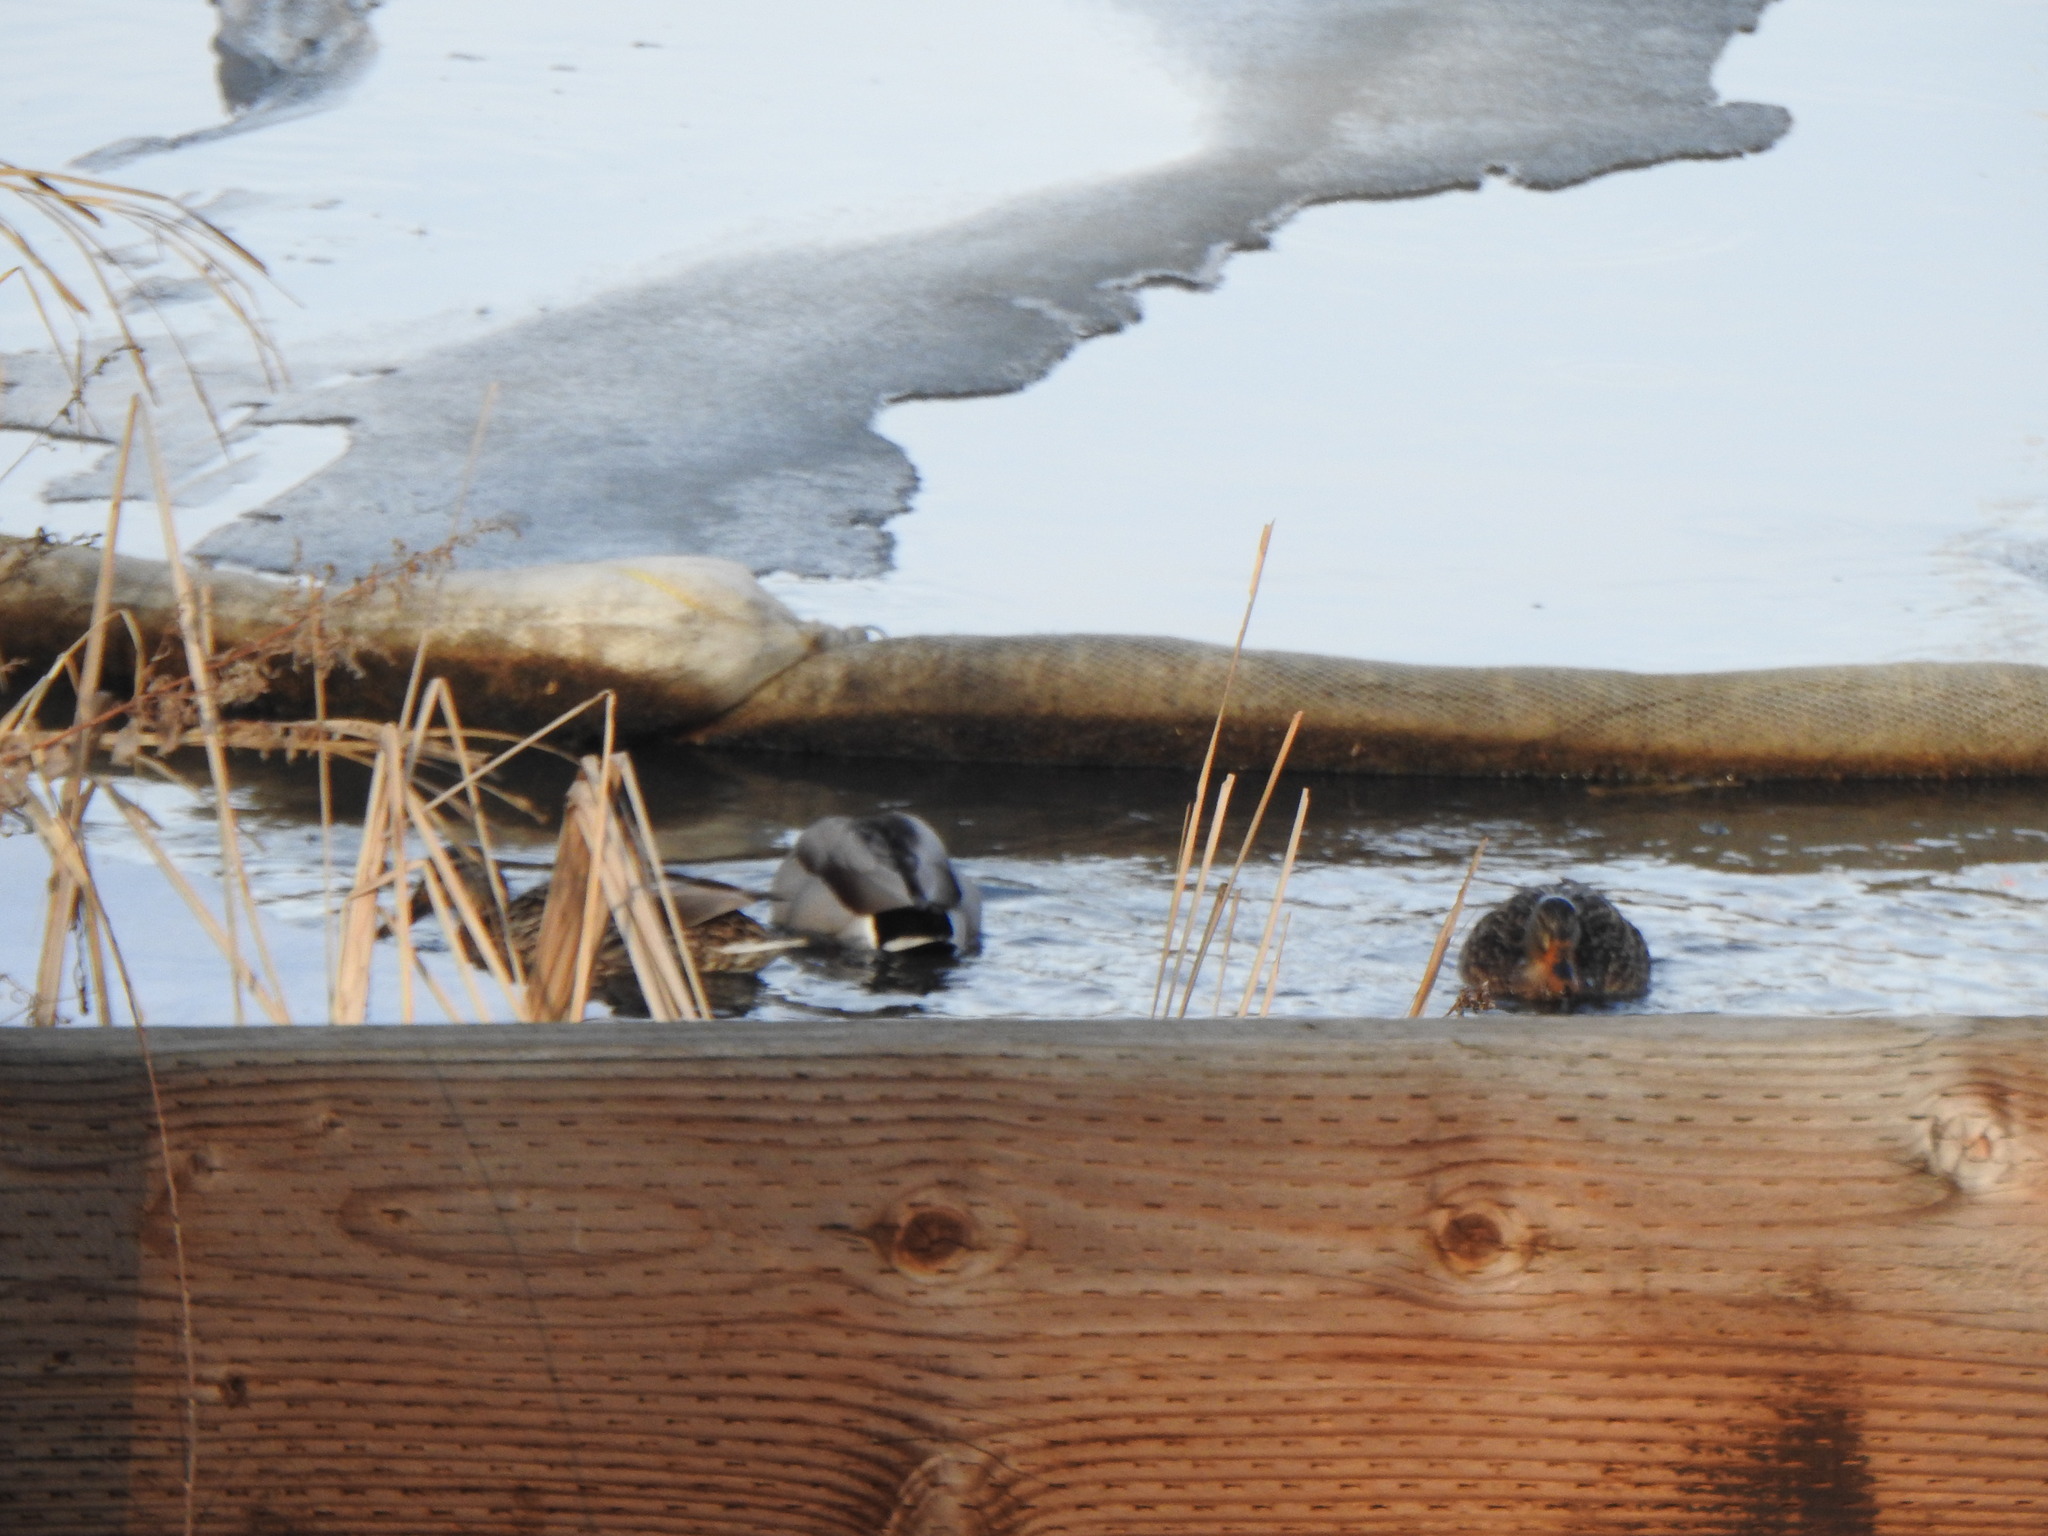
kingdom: Animalia
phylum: Chordata
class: Aves
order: Anseriformes
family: Anatidae
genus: Anas
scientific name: Anas platyrhynchos
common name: Mallard
